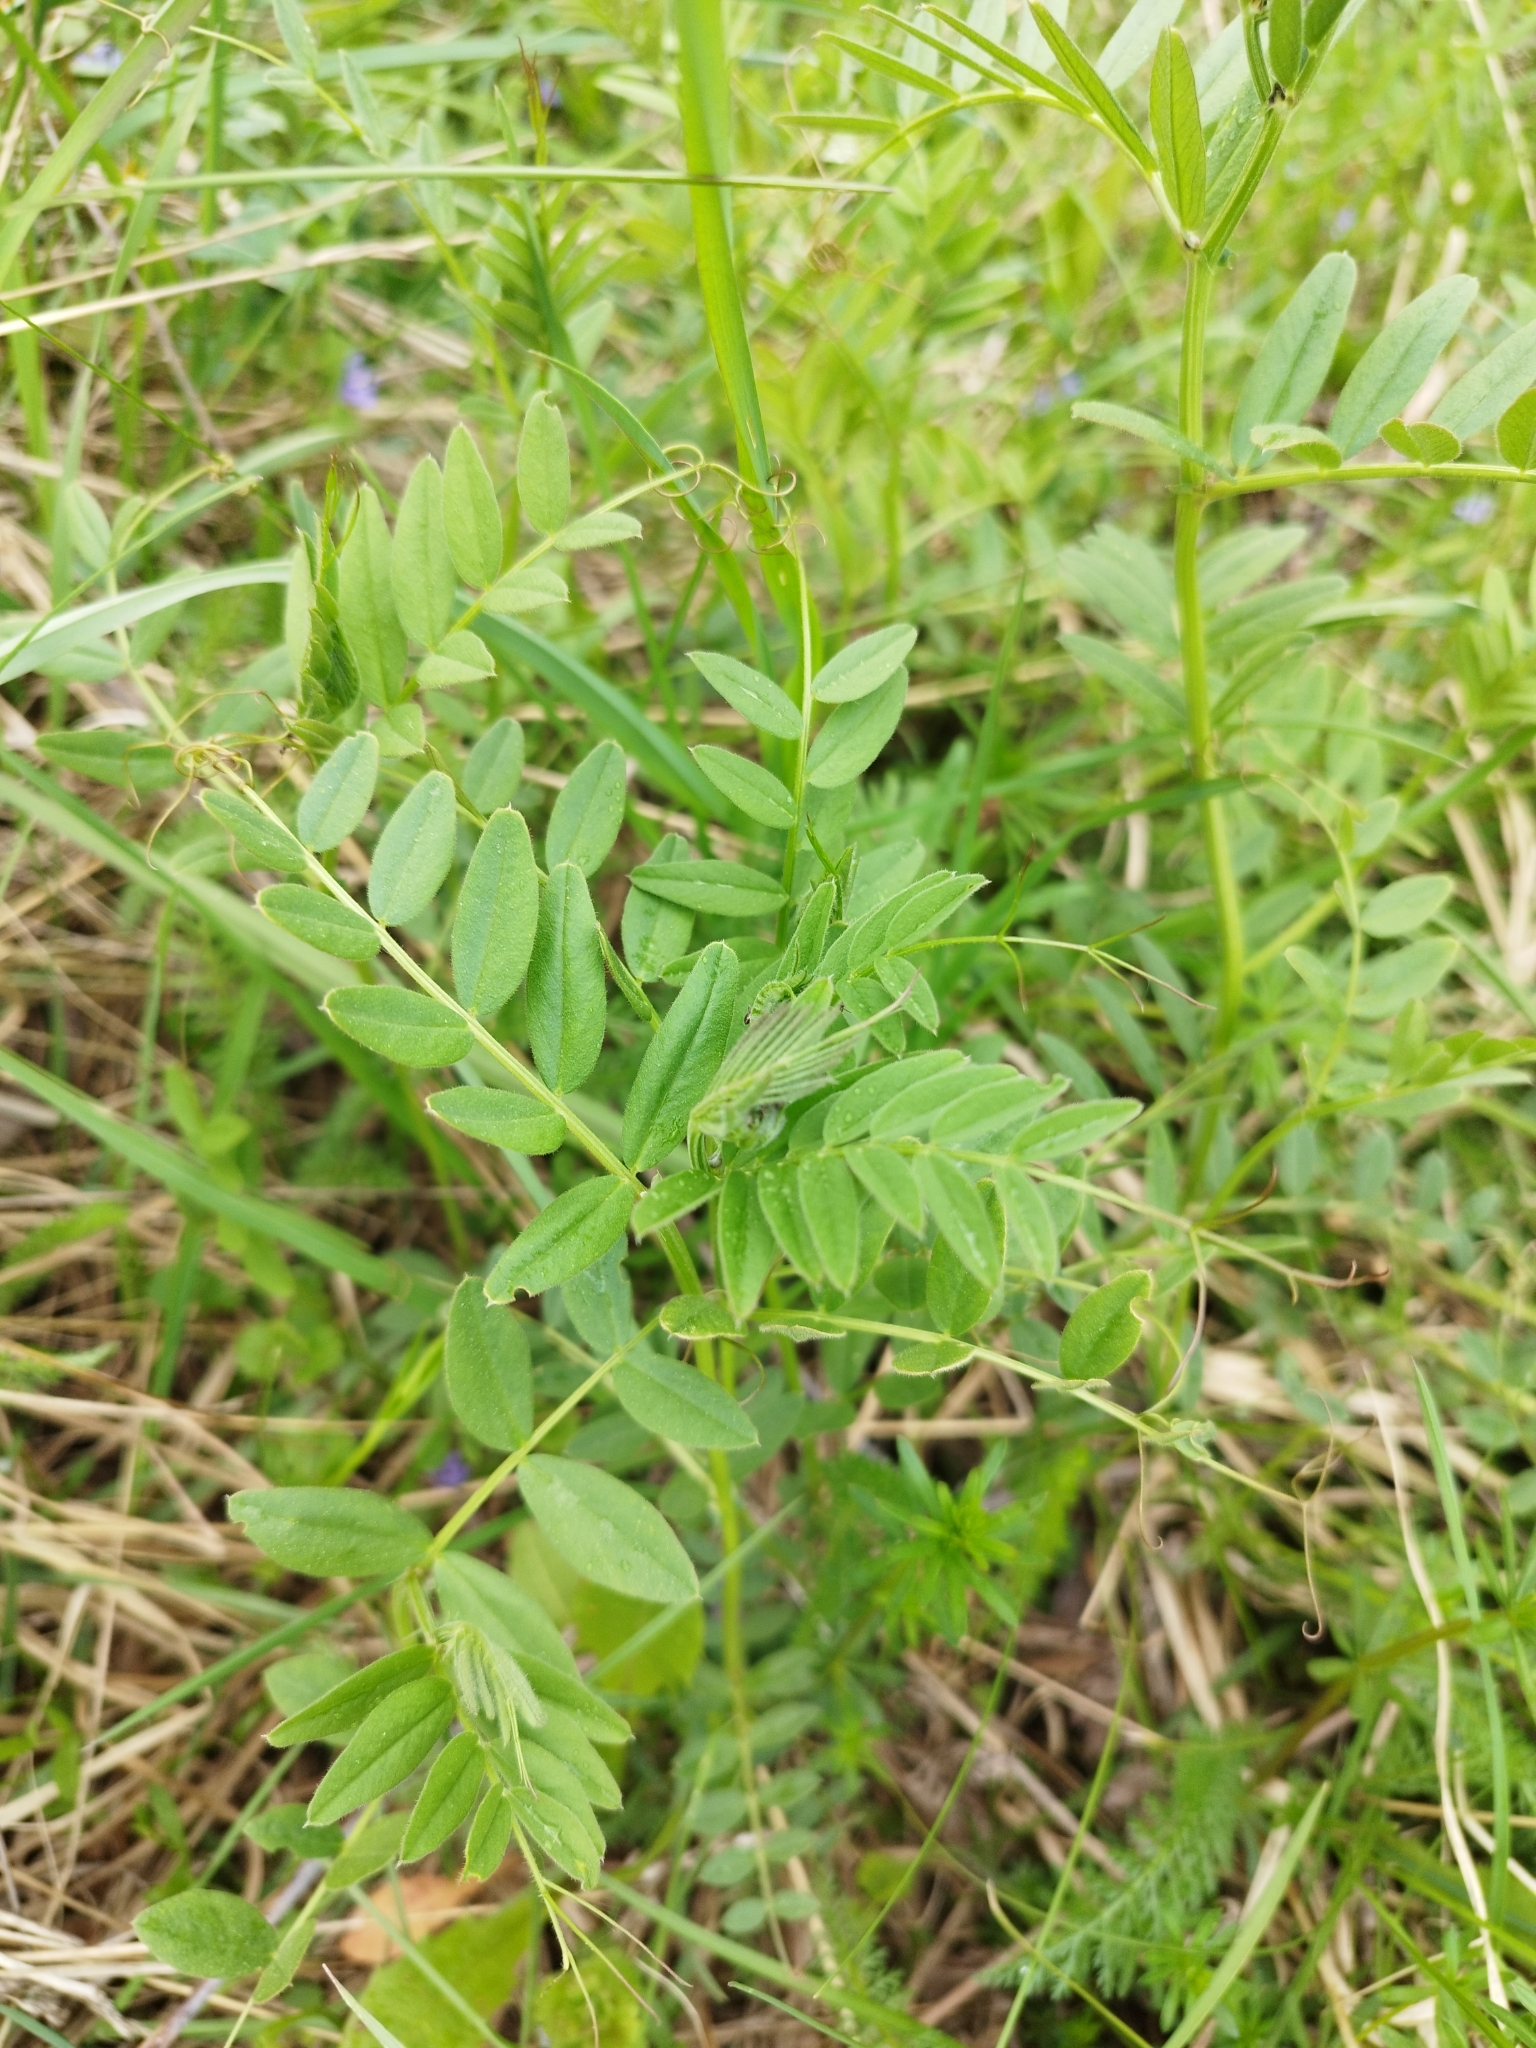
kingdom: Plantae
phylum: Tracheophyta
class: Magnoliopsida
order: Fabales
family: Fabaceae
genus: Vicia
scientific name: Vicia sepium
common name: Bush vetch
